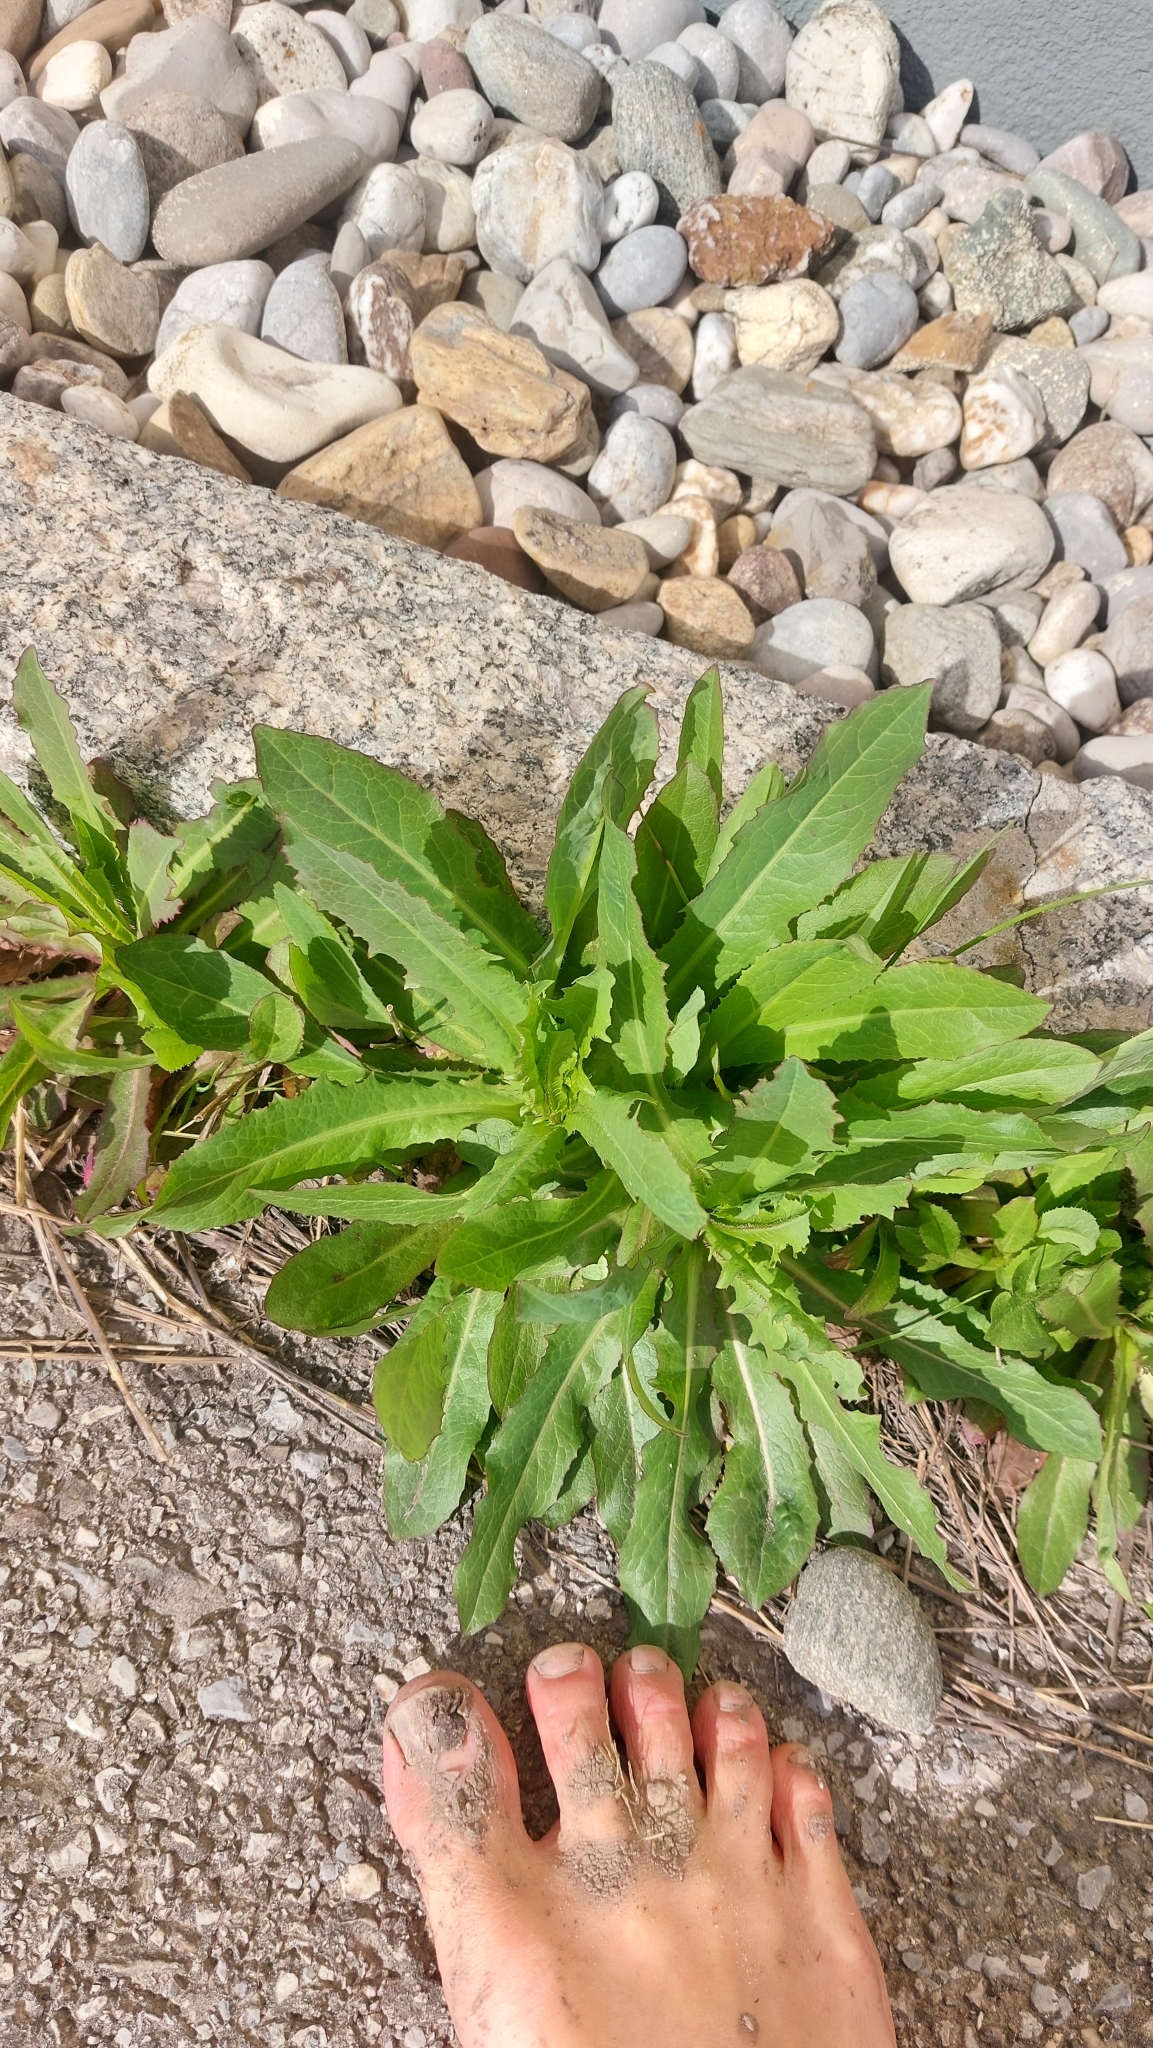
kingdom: Plantae
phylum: Tracheophyta
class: Magnoliopsida
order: Asterales
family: Asteraceae
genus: Lactuca
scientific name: Lactuca serriola
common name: Prickly lettuce
